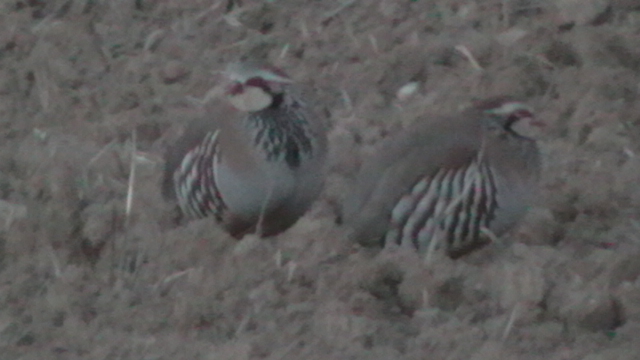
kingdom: Animalia
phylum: Chordata
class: Aves
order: Galliformes
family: Phasianidae
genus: Alectoris
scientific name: Alectoris rufa
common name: Red-legged partridge
